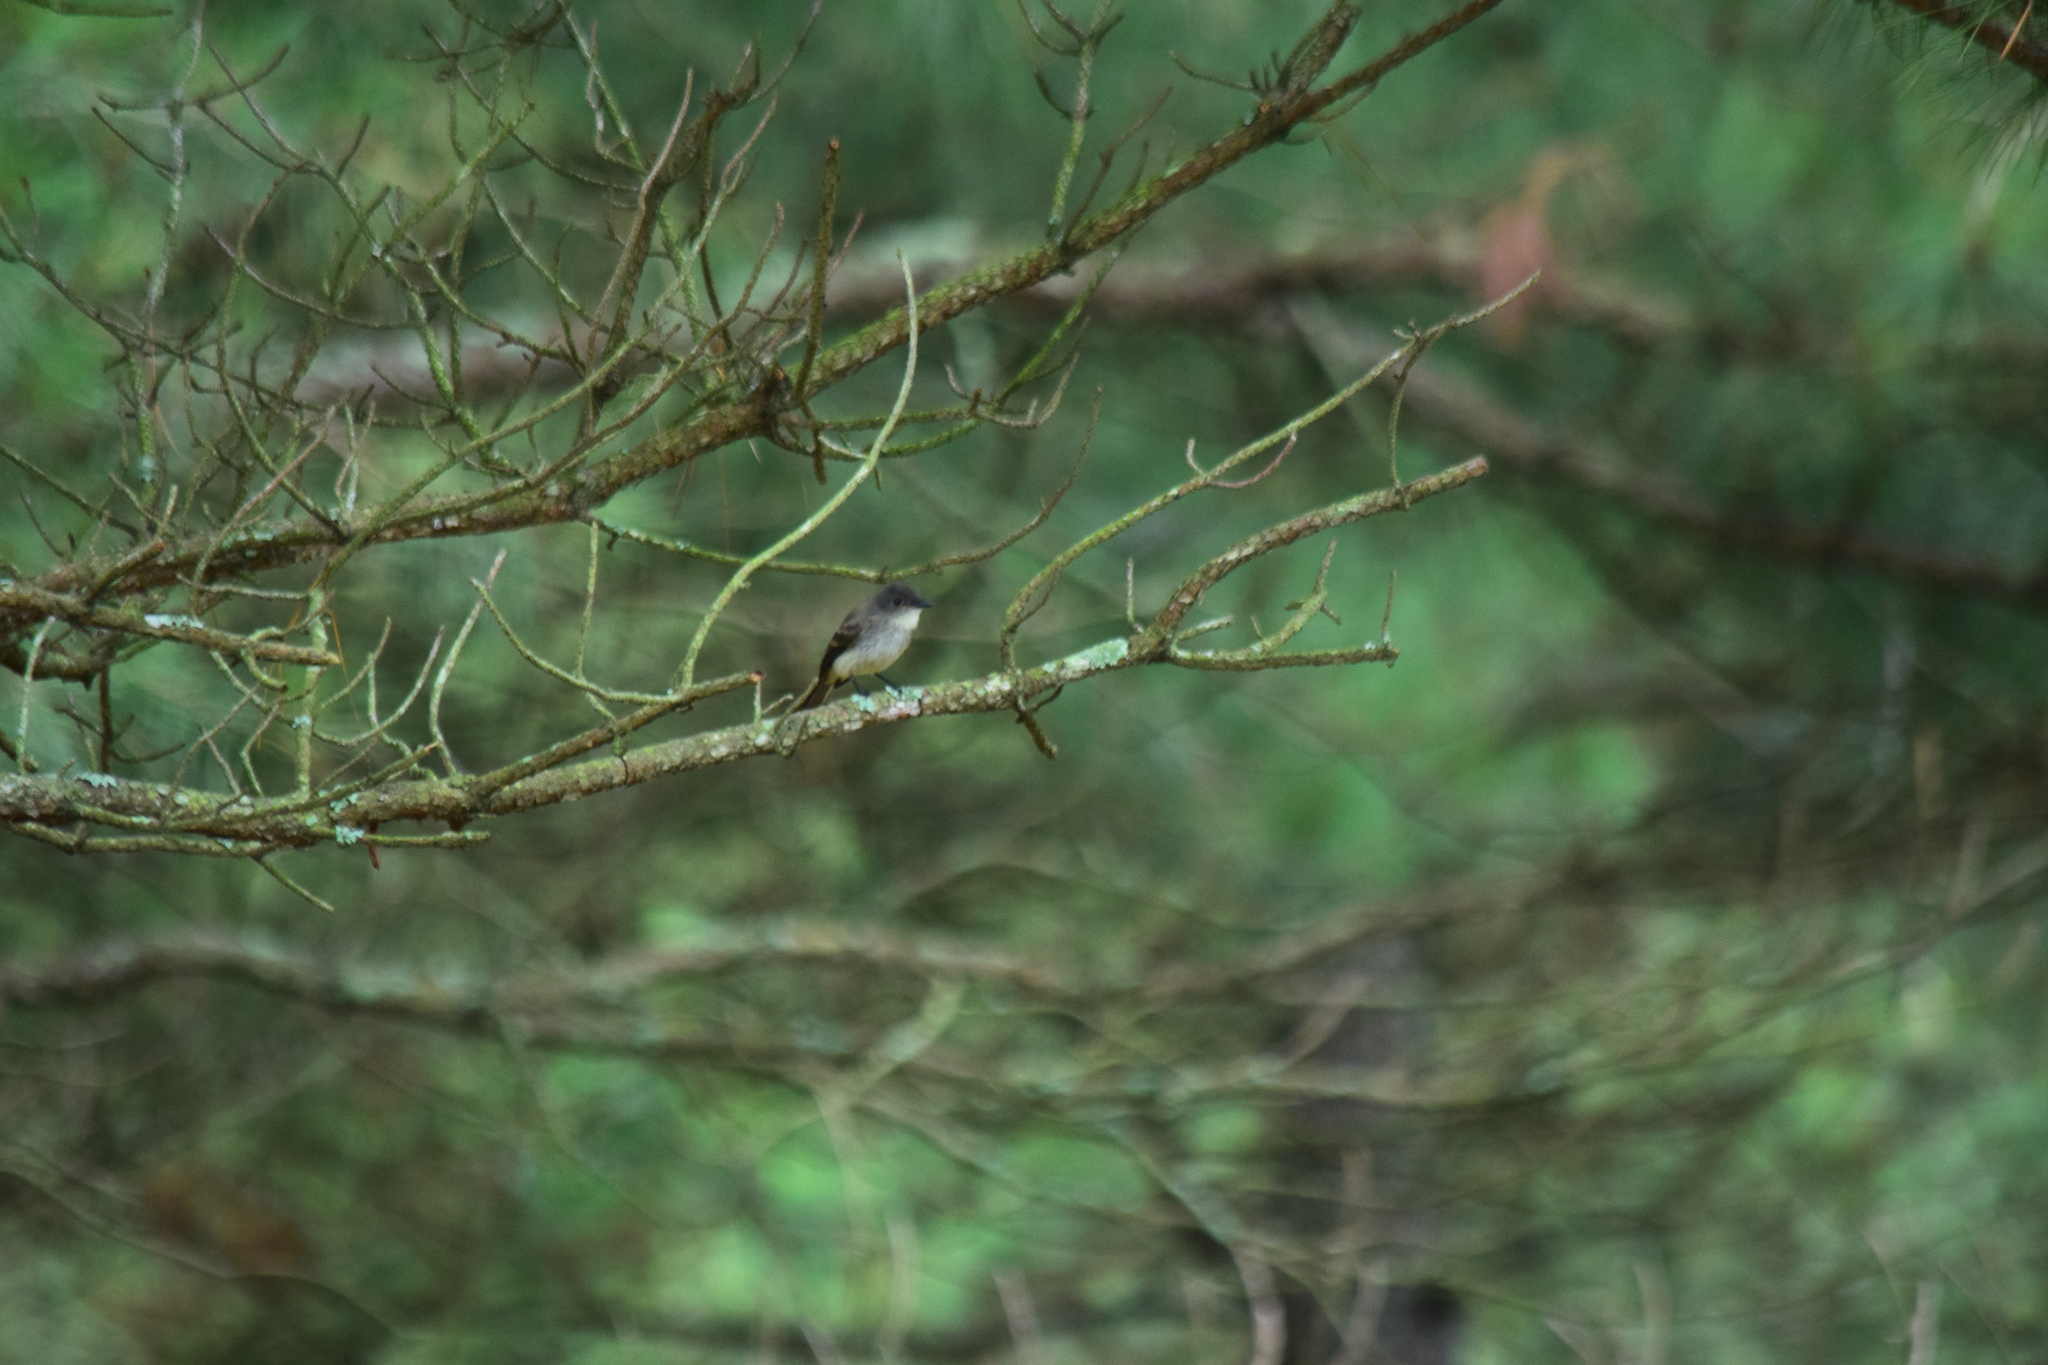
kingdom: Animalia
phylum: Chordata
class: Aves
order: Passeriformes
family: Tyrannidae
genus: Sayornis
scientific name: Sayornis phoebe
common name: Eastern phoebe
